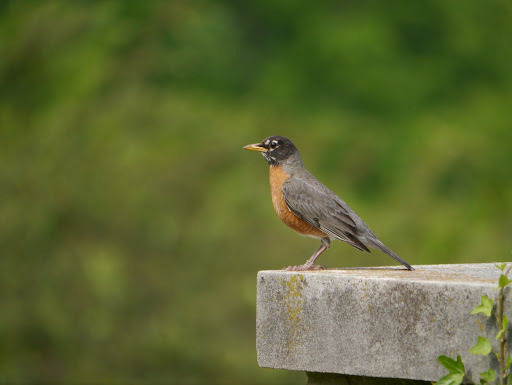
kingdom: Animalia
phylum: Chordata
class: Aves
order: Passeriformes
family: Turdidae
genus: Turdus
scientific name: Turdus migratorius
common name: American robin
